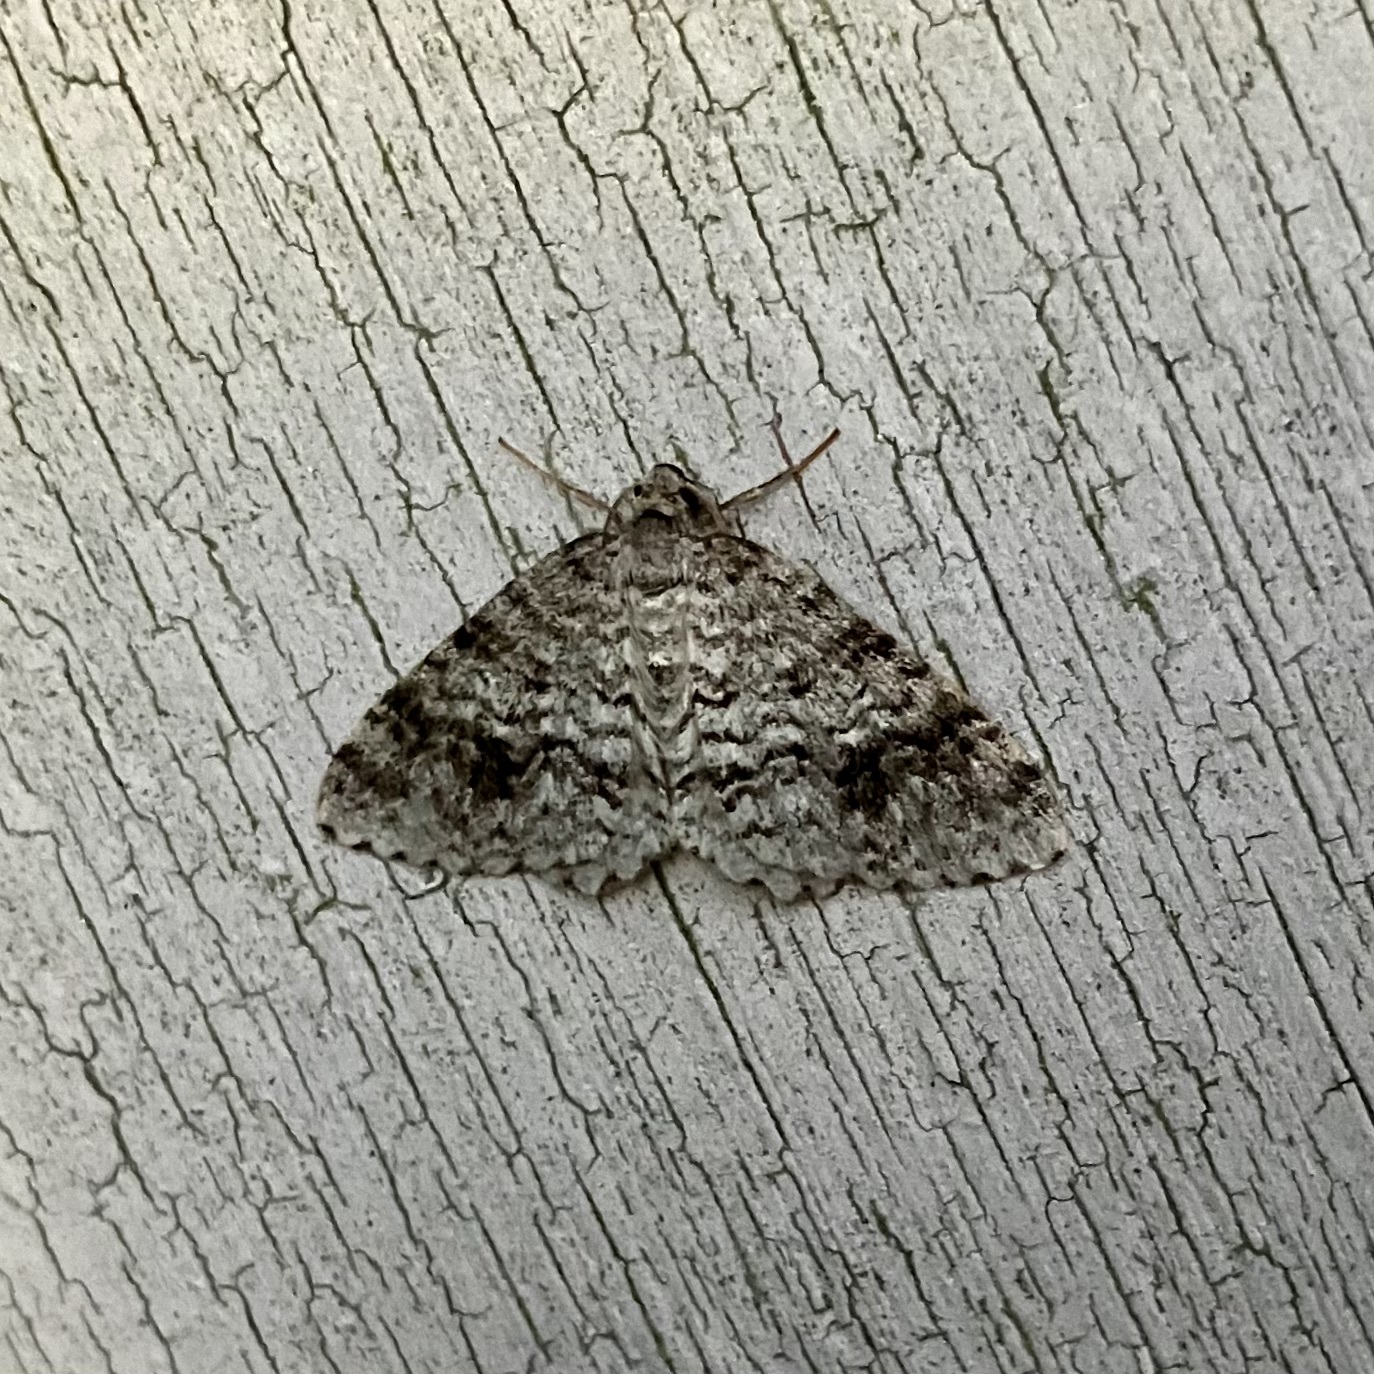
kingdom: Animalia
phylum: Arthropoda
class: Insecta
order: Lepidoptera
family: Geometridae
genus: Venusia
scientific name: Venusia cambrica
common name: Welsh wave
